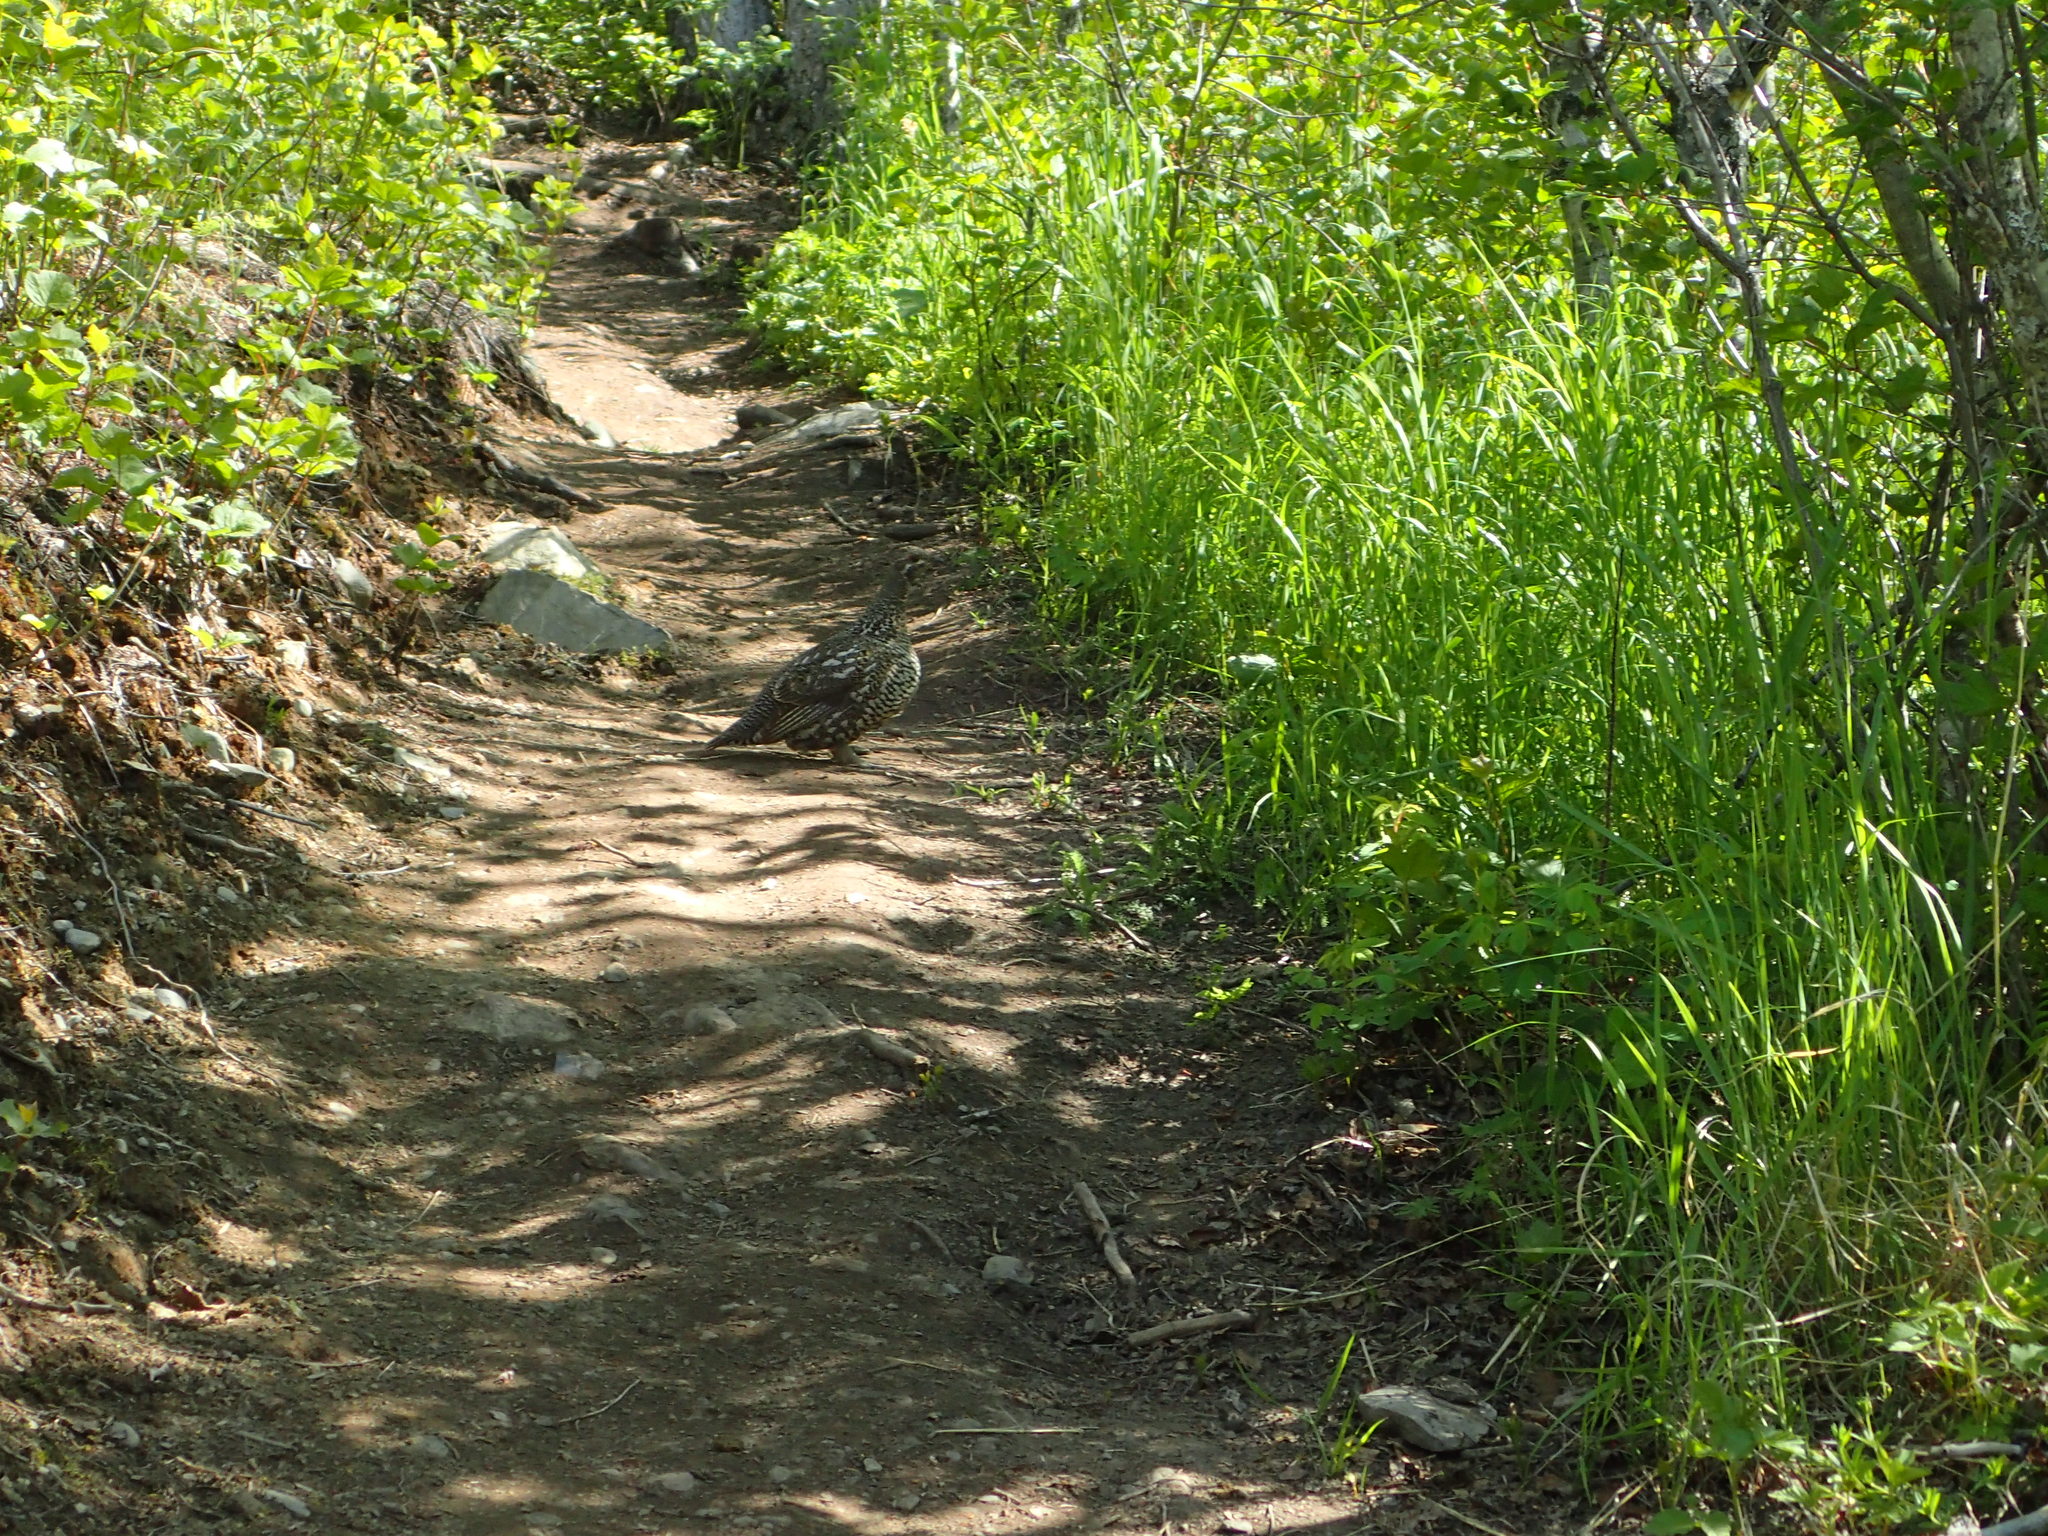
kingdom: Animalia
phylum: Chordata
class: Aves
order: Galliformes
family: Phasianidae
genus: Canachites
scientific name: Canachites canadensis
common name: Spruce grouse
